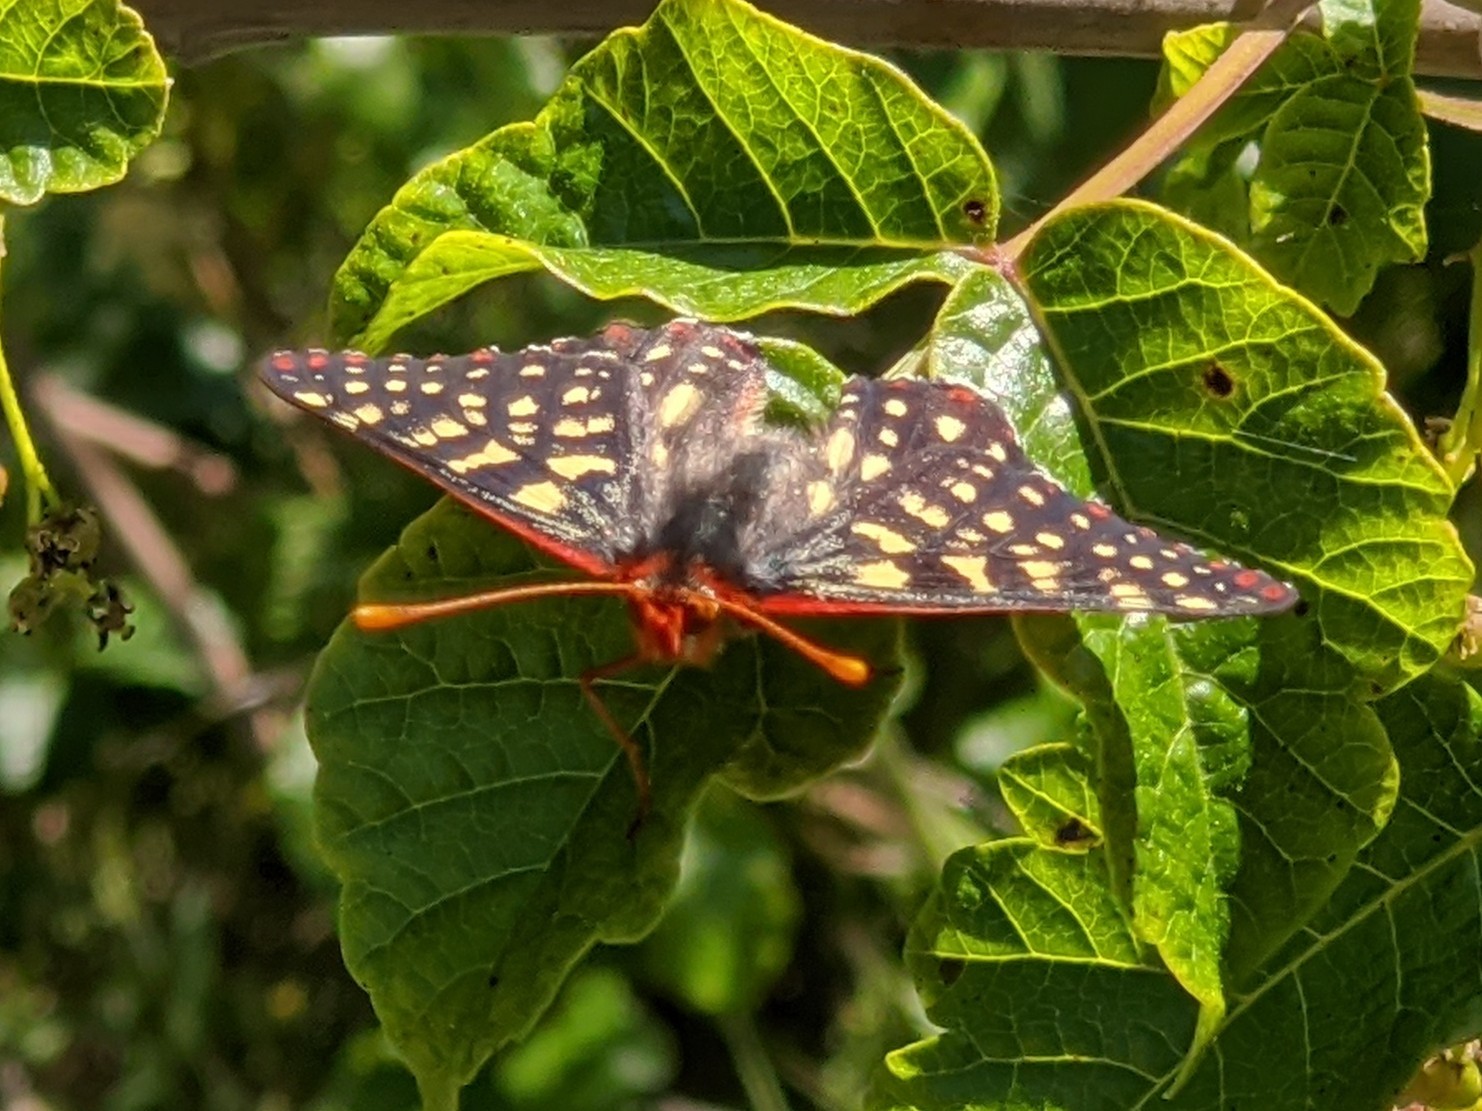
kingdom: Animalia
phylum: Arthropoda
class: Insecta
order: Lepidoptera
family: Nymphalidae
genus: Occidryas
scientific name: Occidryas chalcedona
